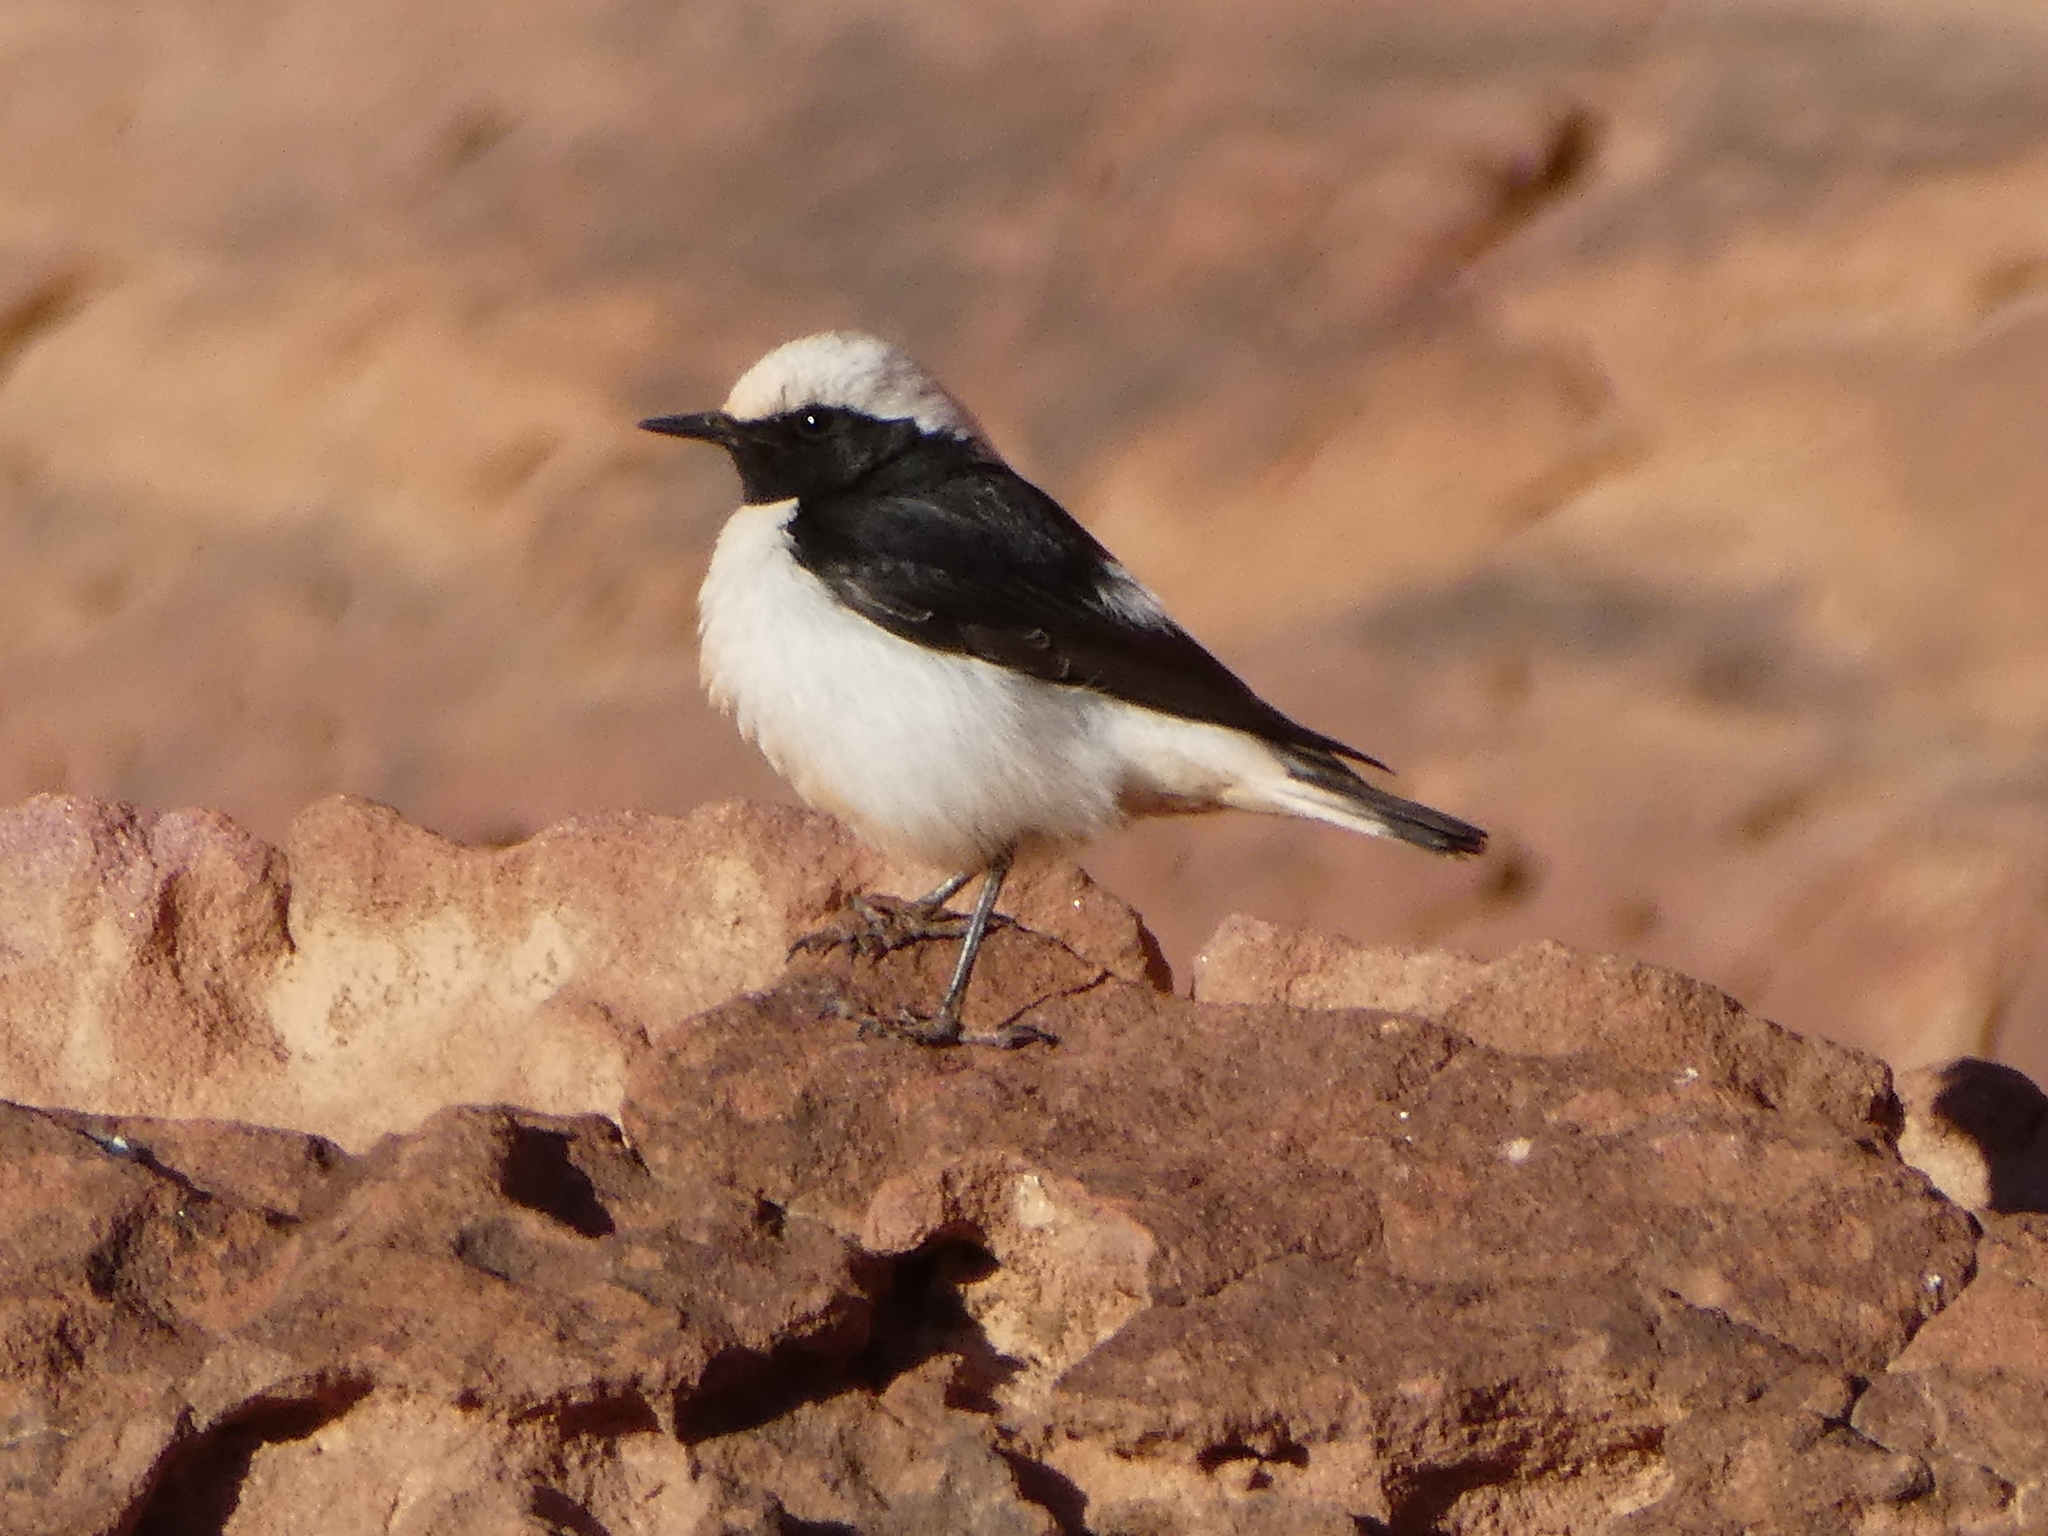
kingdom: Animalia
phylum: Chordata
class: Aves
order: Passeriformes
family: Muscicapidae
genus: Oenanthe
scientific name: Oenanthe lugens
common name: Mourning wheatear
